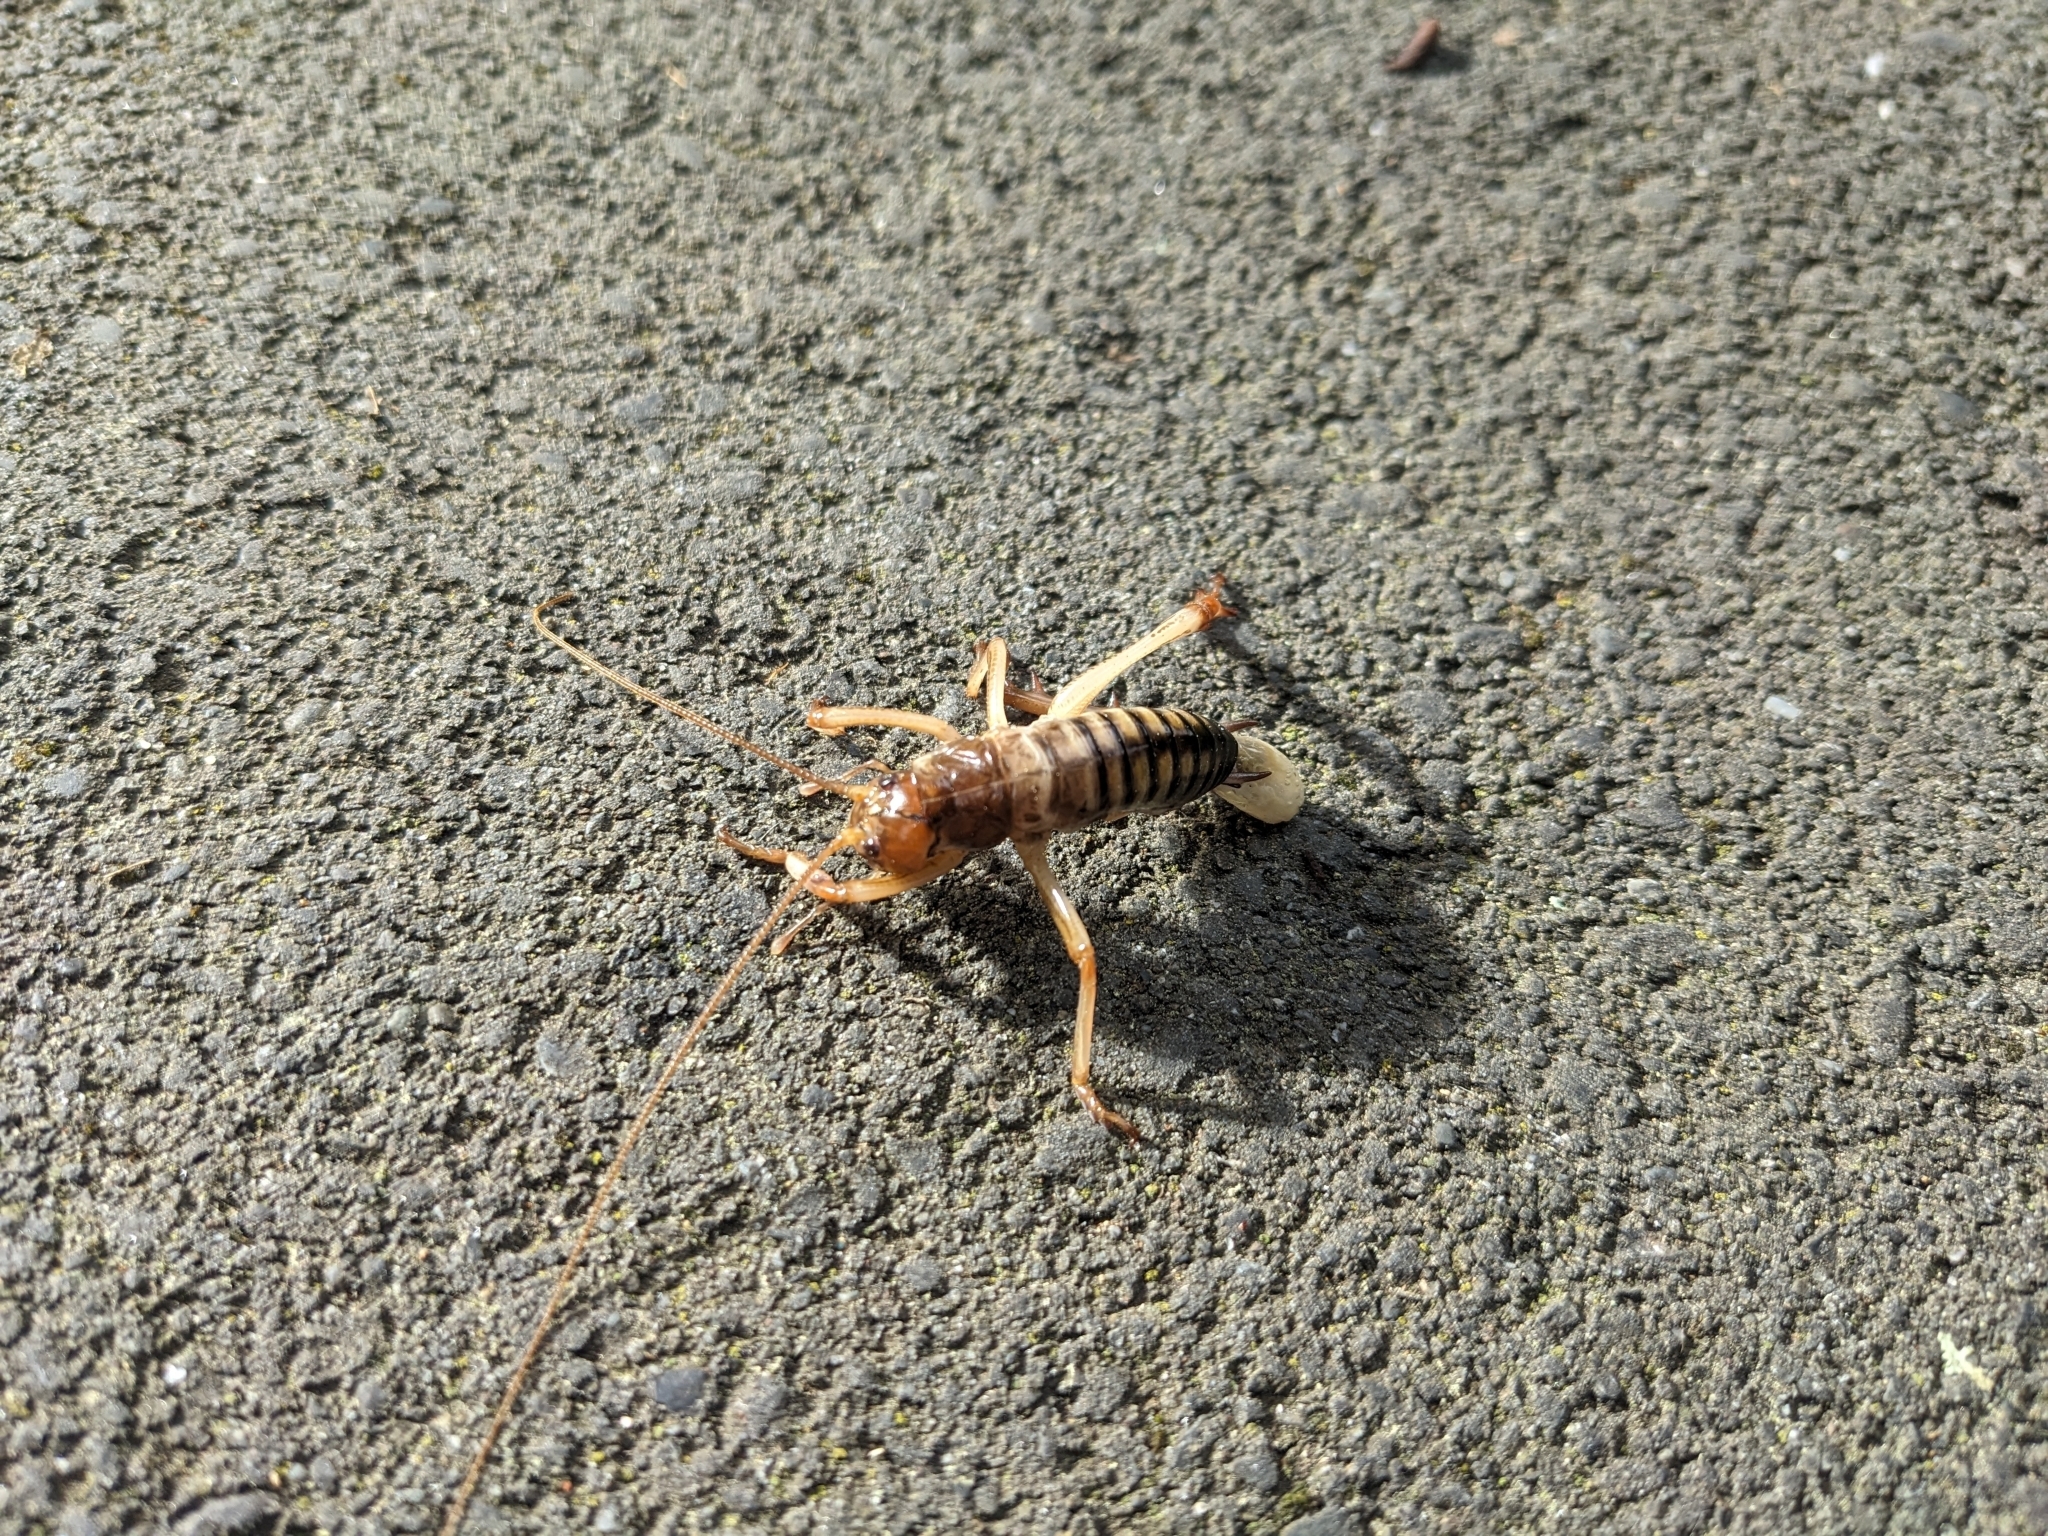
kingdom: Animalia
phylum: Arthropoda
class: Insecta
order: Orthoptera
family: Anostostomatidae
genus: Hemideina
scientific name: Hemideina crassidens
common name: Wellington tree weta
